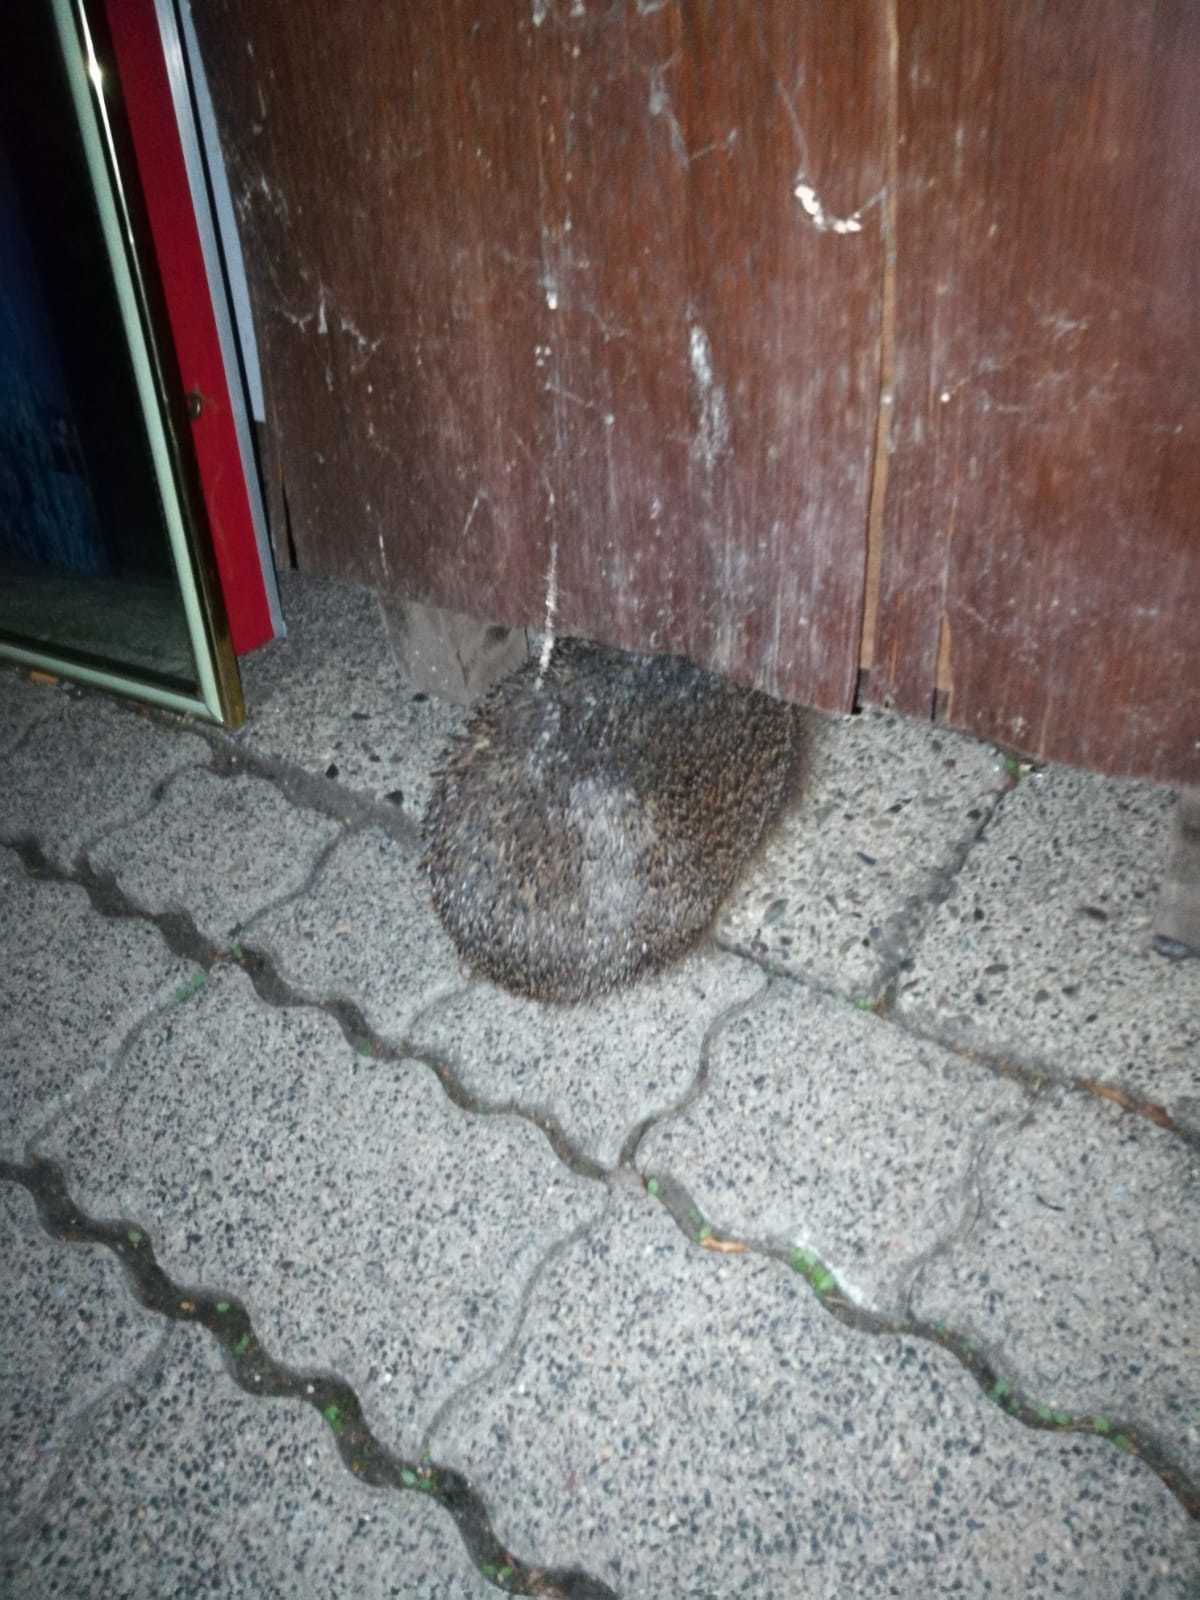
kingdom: Animalia
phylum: Chordata
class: Mammalia
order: Erinaceomorpha
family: Erinaceidae
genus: Erinaceus
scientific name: Erinaceus europaeus
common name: West european hedgehog
